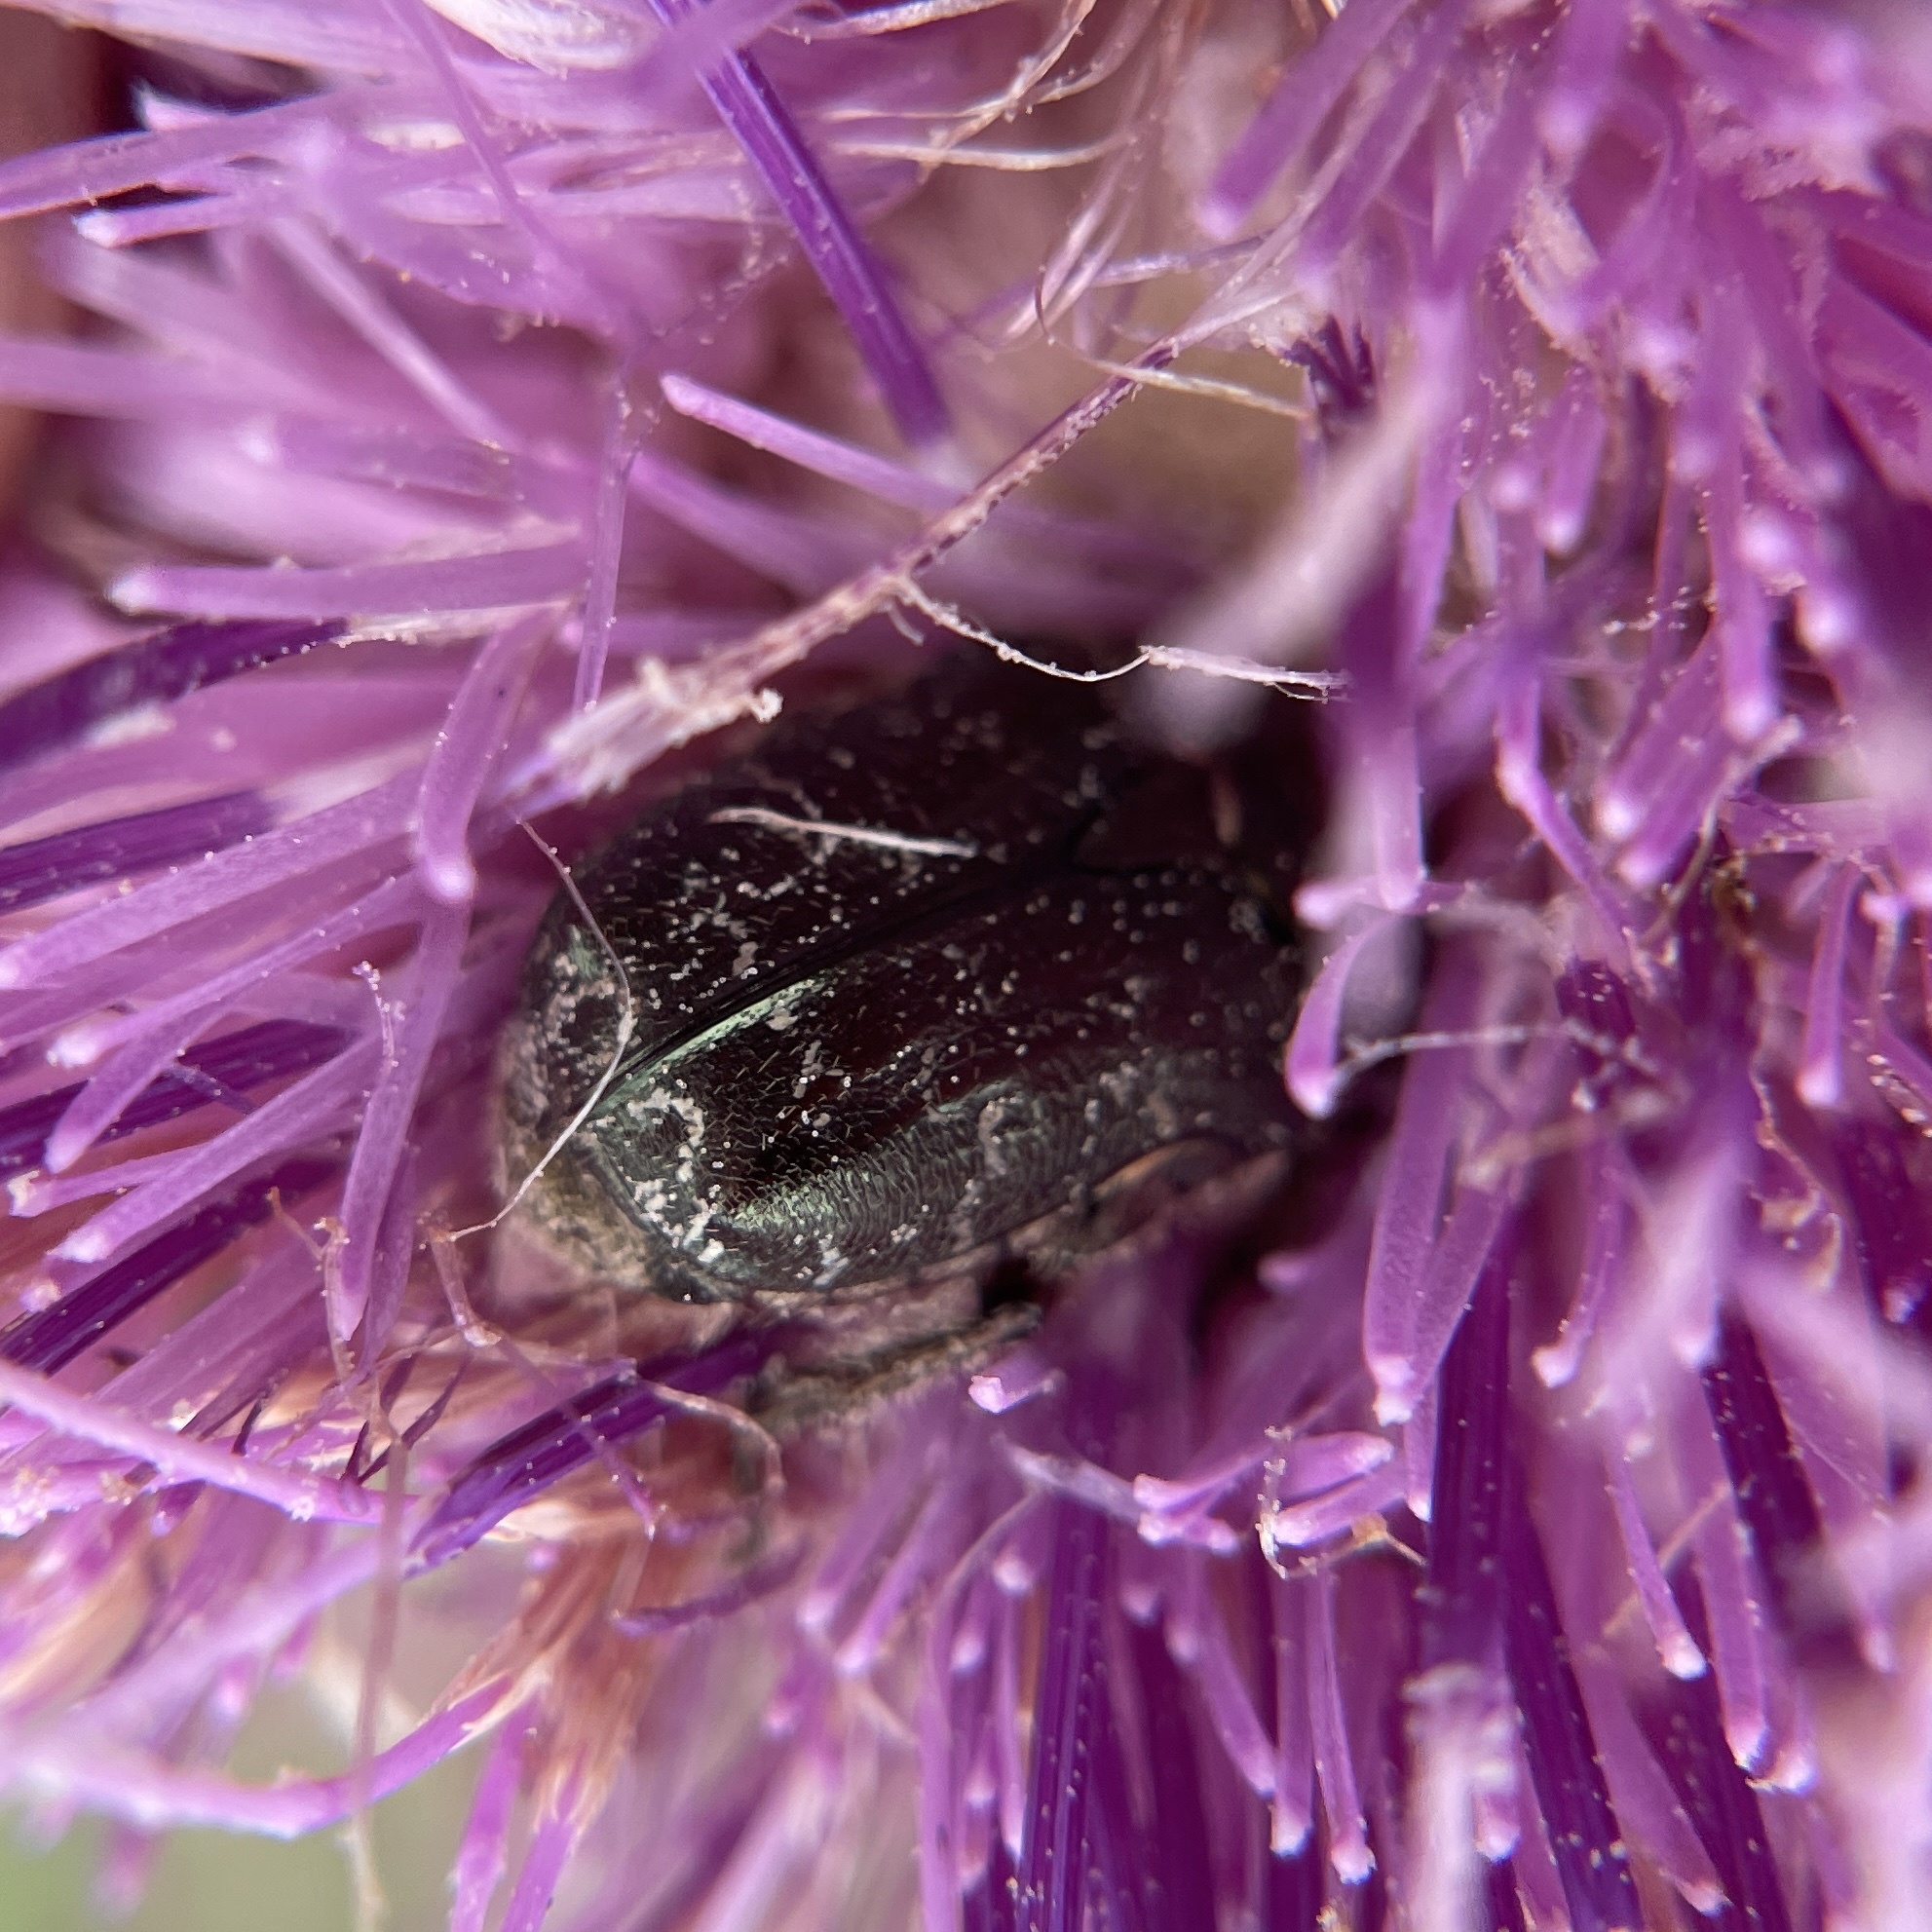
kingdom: Animalia
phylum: Arthropoda
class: Insecta
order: Coleoptera
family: Scarabaeidae
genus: Euphoria
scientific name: Euphoria sepulcralis
